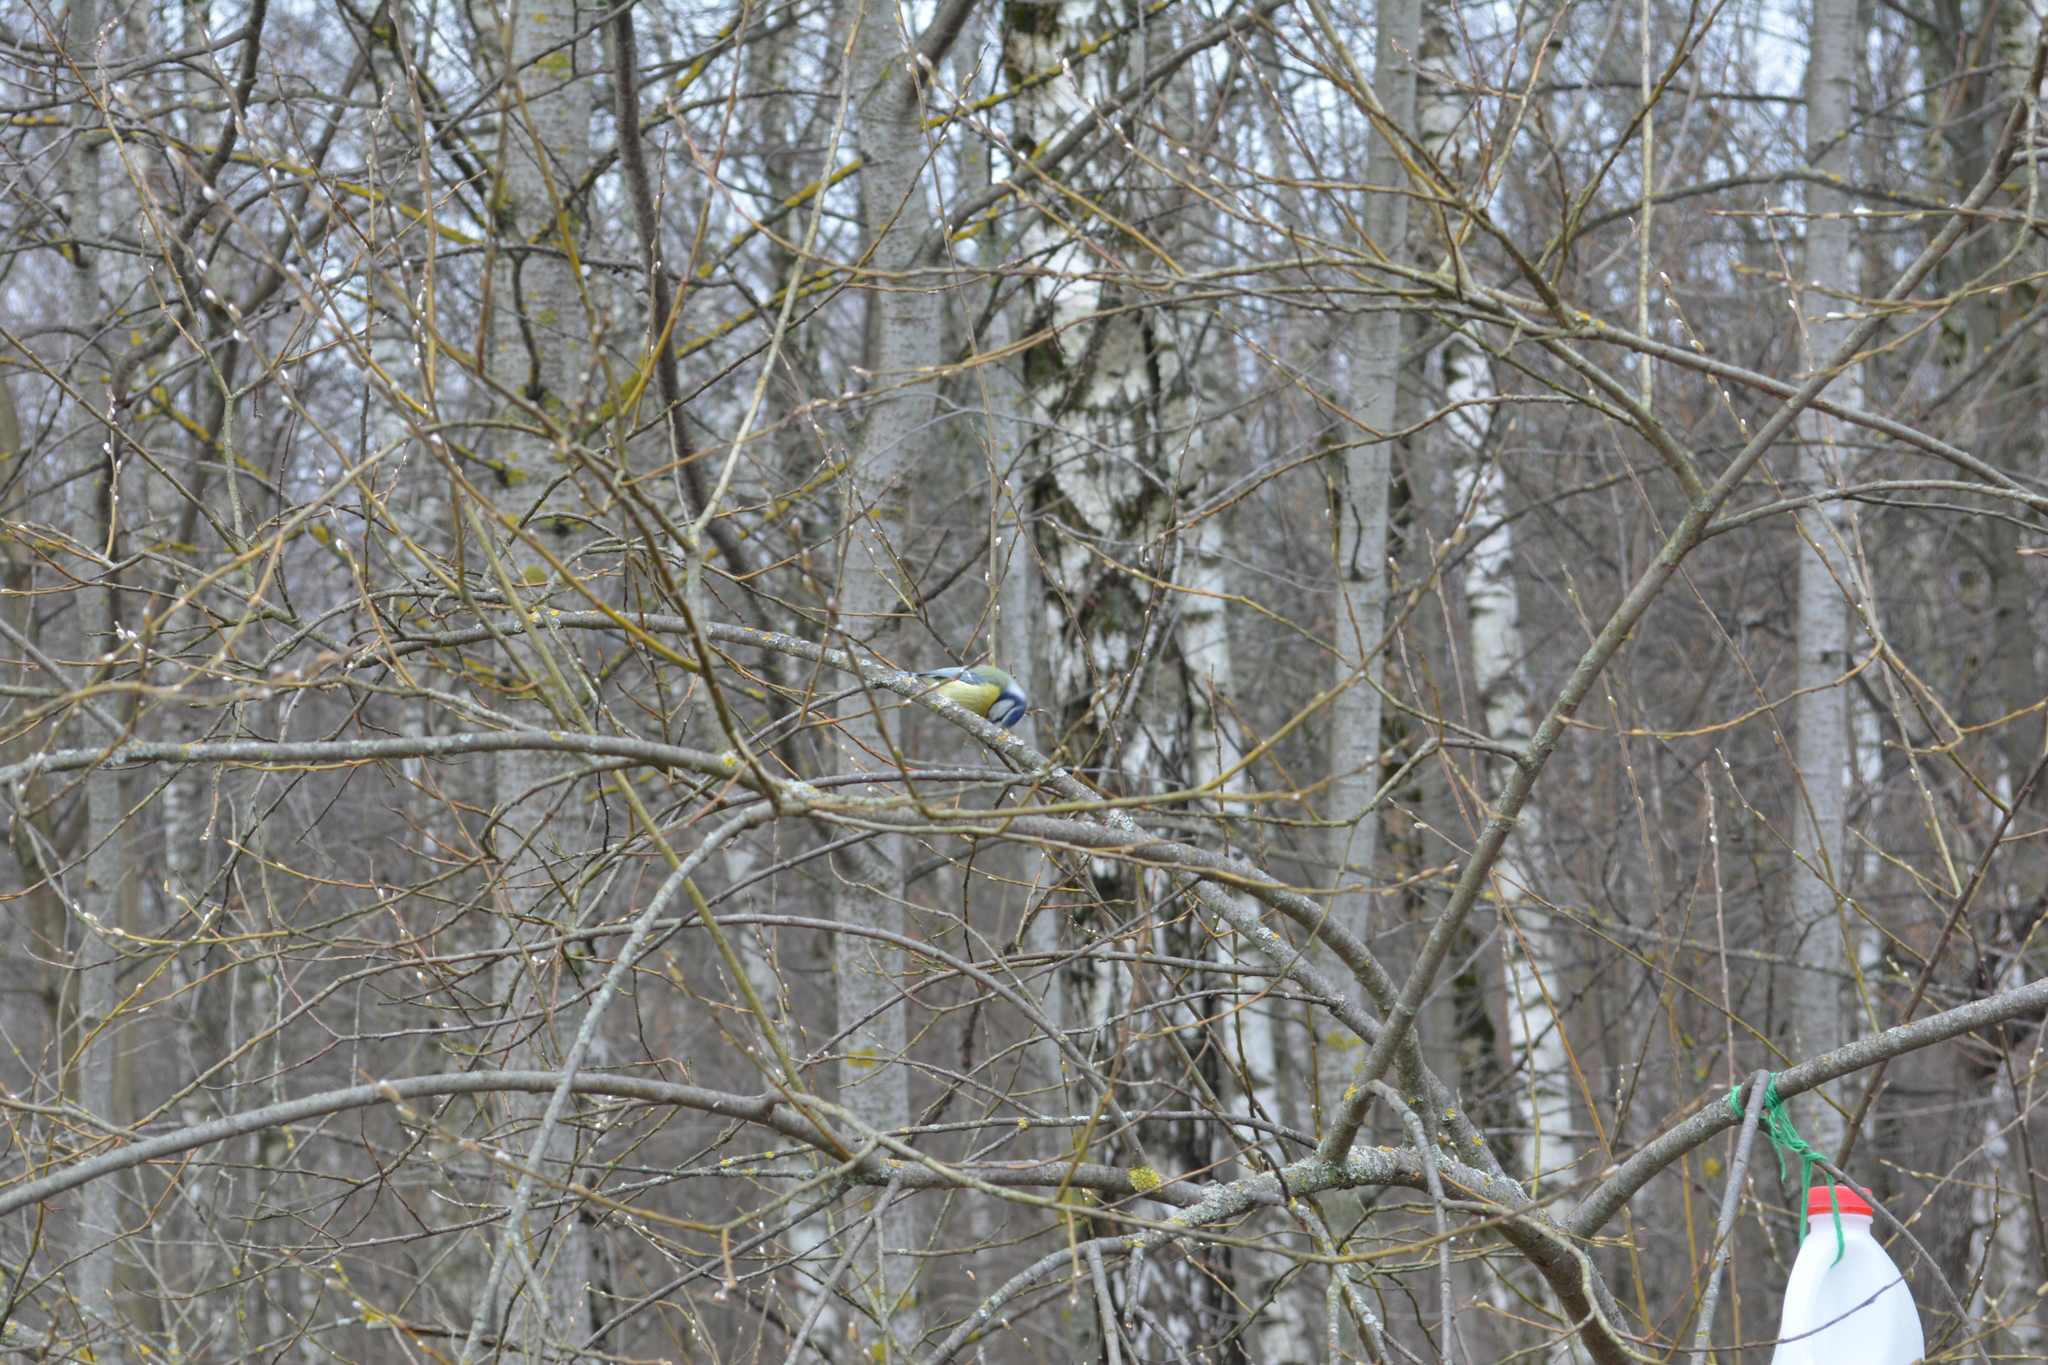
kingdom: Animalia
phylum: Chordata
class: Aves
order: Passeriformes
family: Paridae
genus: Cyanistes
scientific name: Cyanistes caeruleus
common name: Eurasian blue tit
